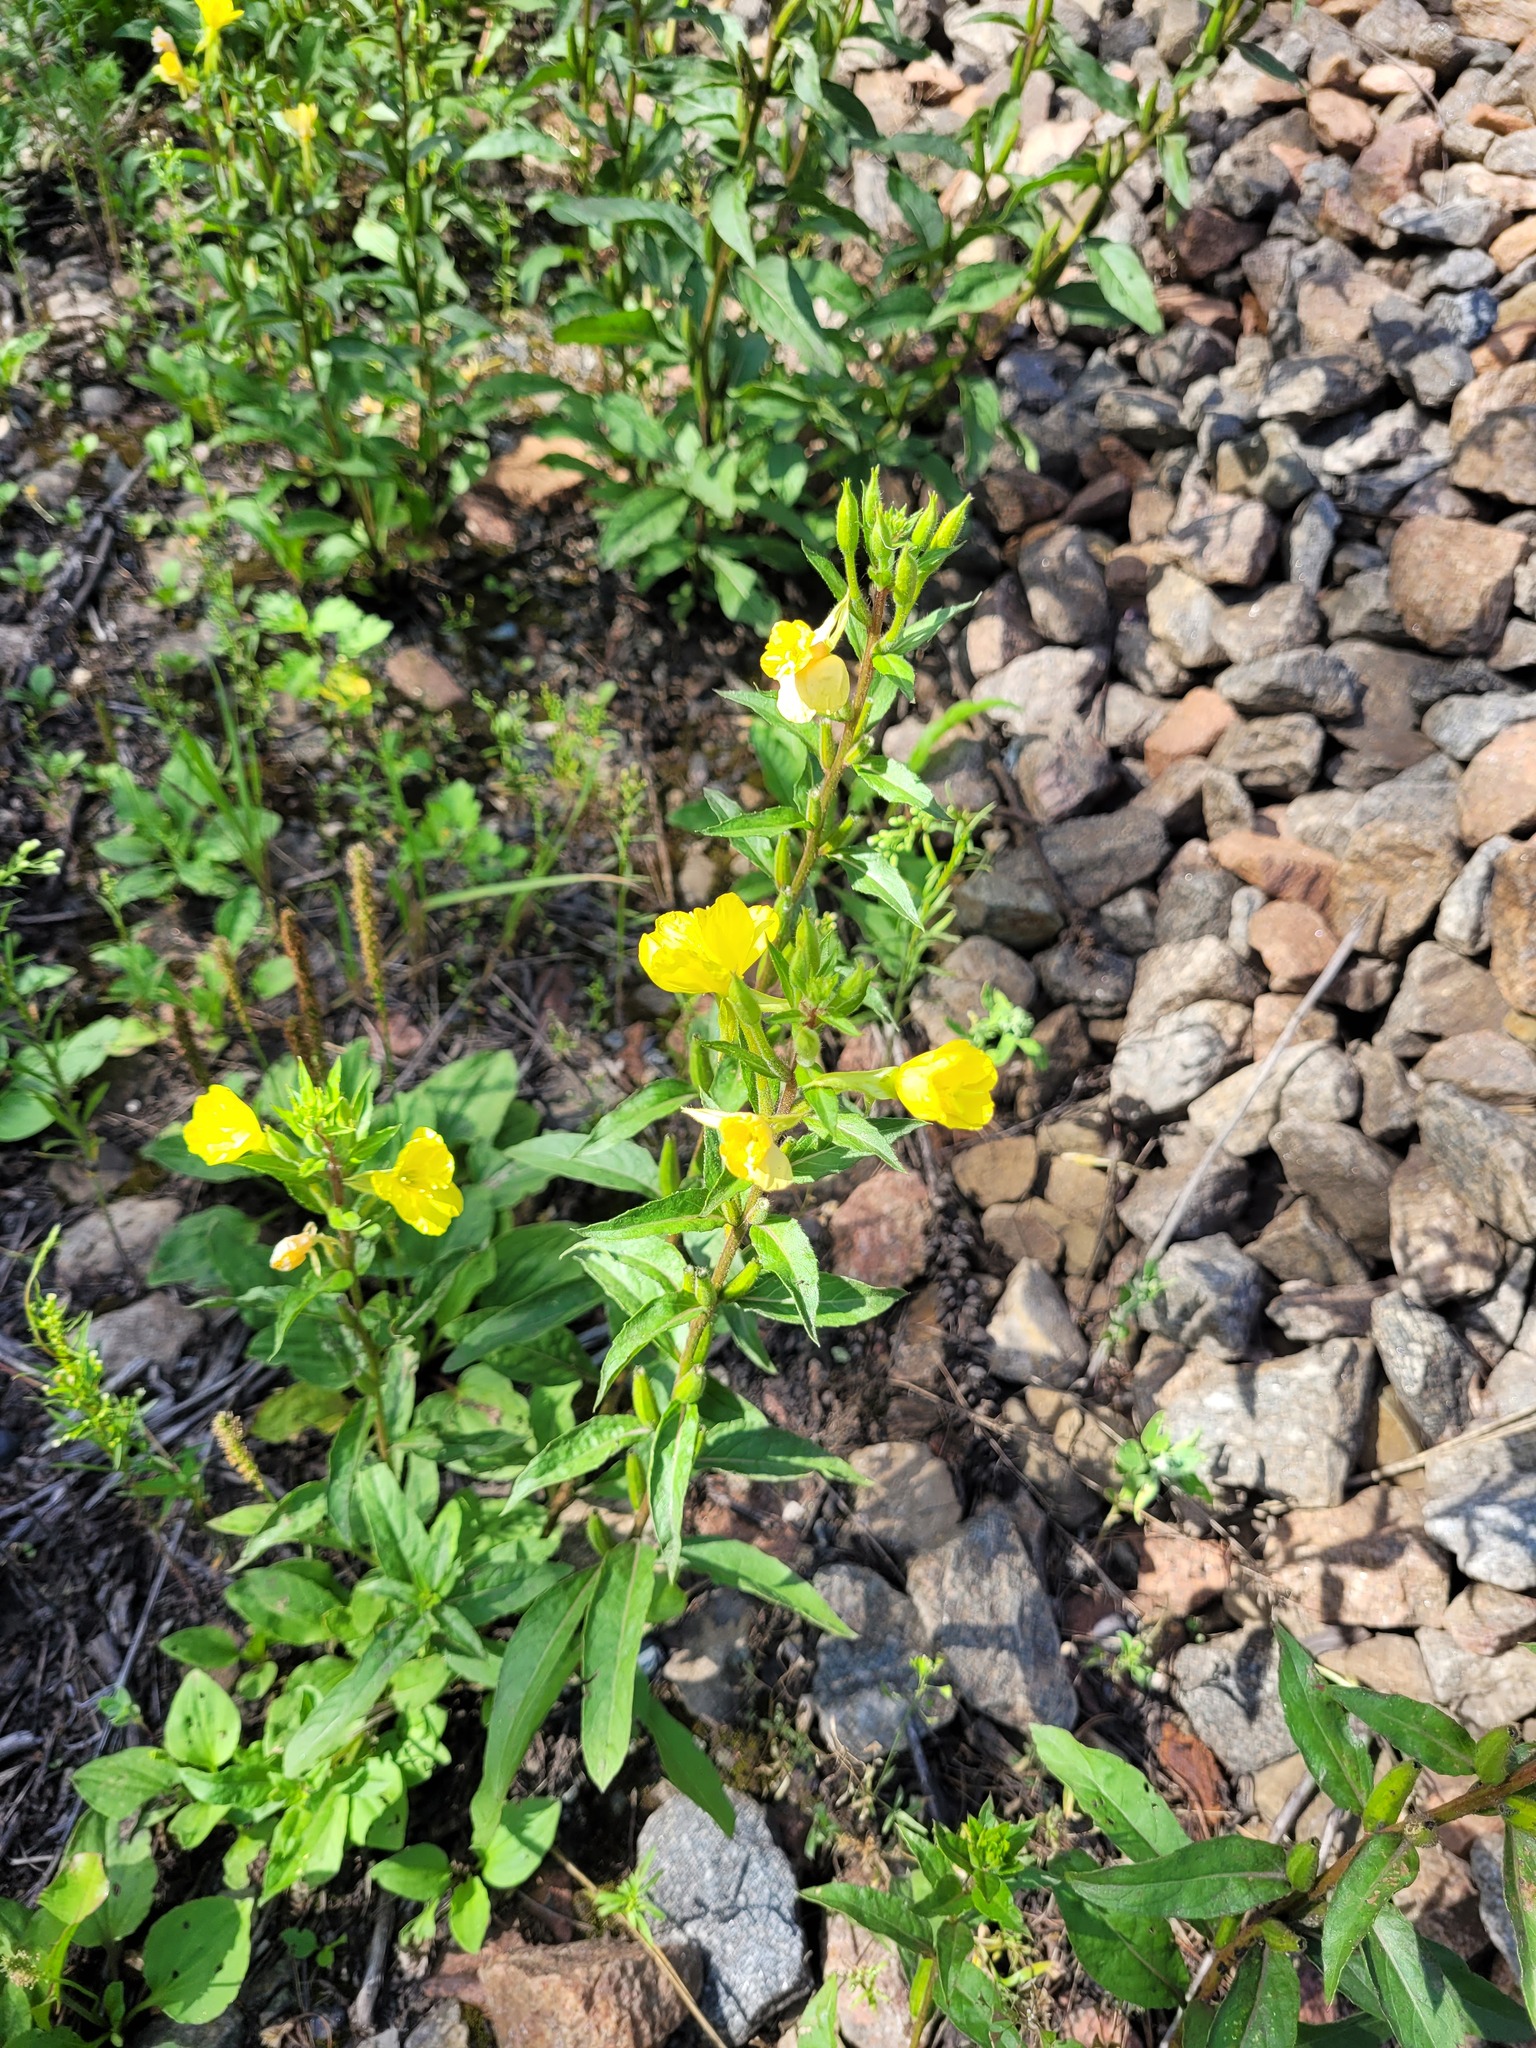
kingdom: Plantae
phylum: Tracheophyta
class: Magnoliopsida
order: Myrtales
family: Onagraceae
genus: Oenothera
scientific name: Oenothera rubricaulis
